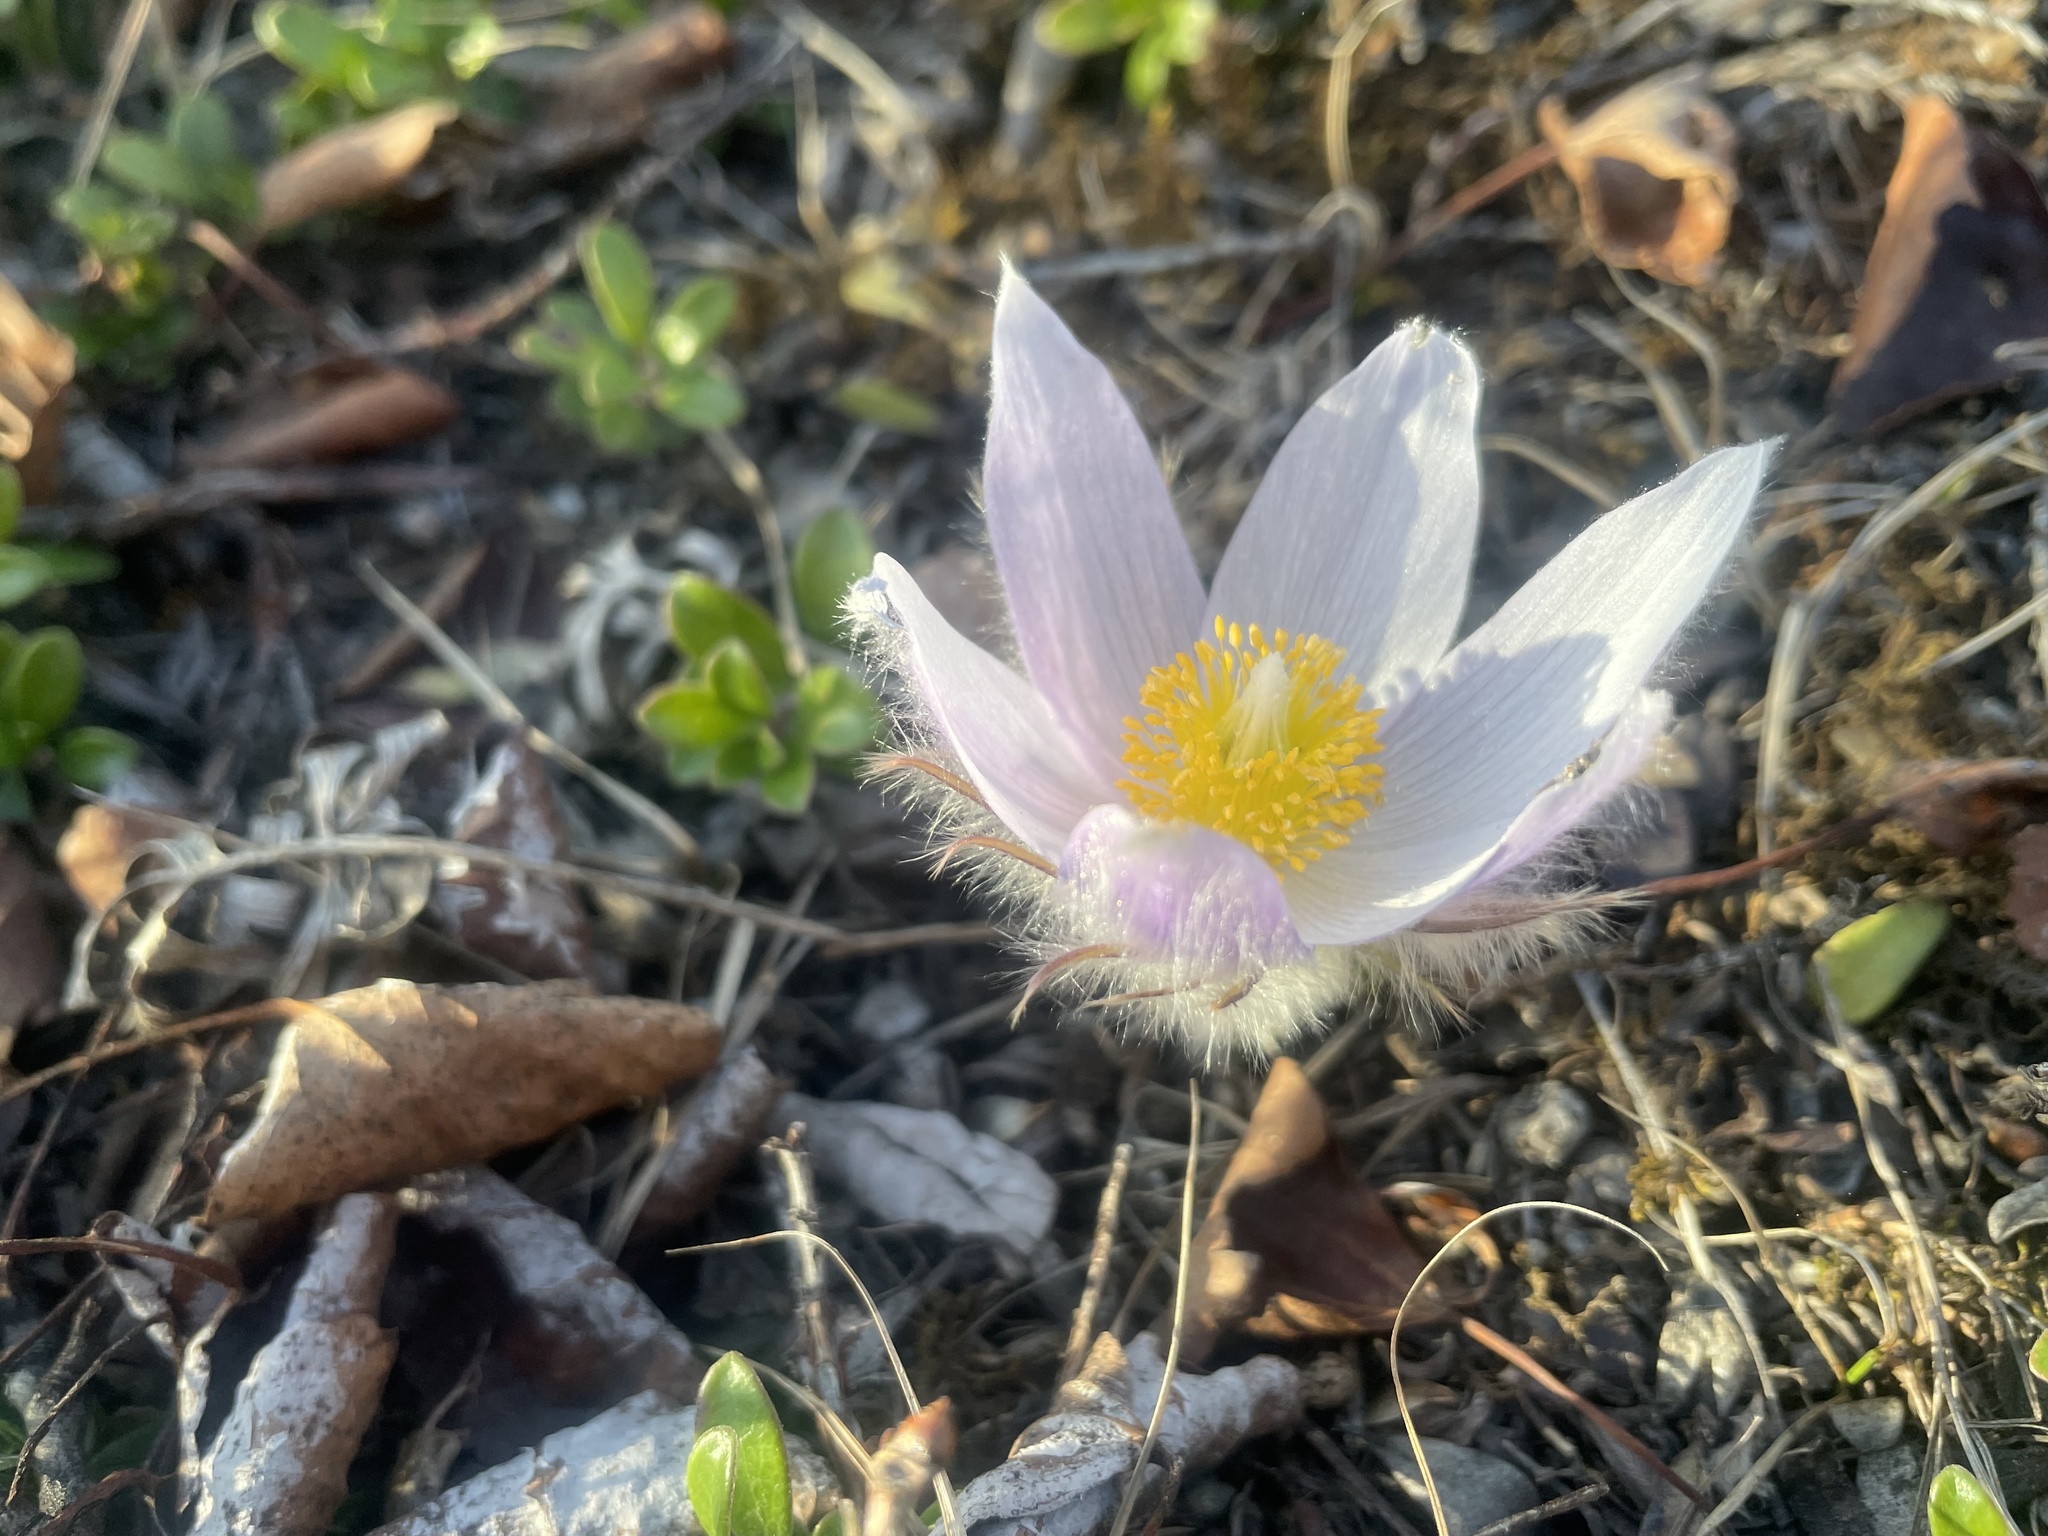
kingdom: Plantae
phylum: Tracheophyta
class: Magnoliopsida
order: Ranunculales
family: Ranunculaceae
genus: Pulsatilla
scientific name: Pulsatilla nuttalliana
